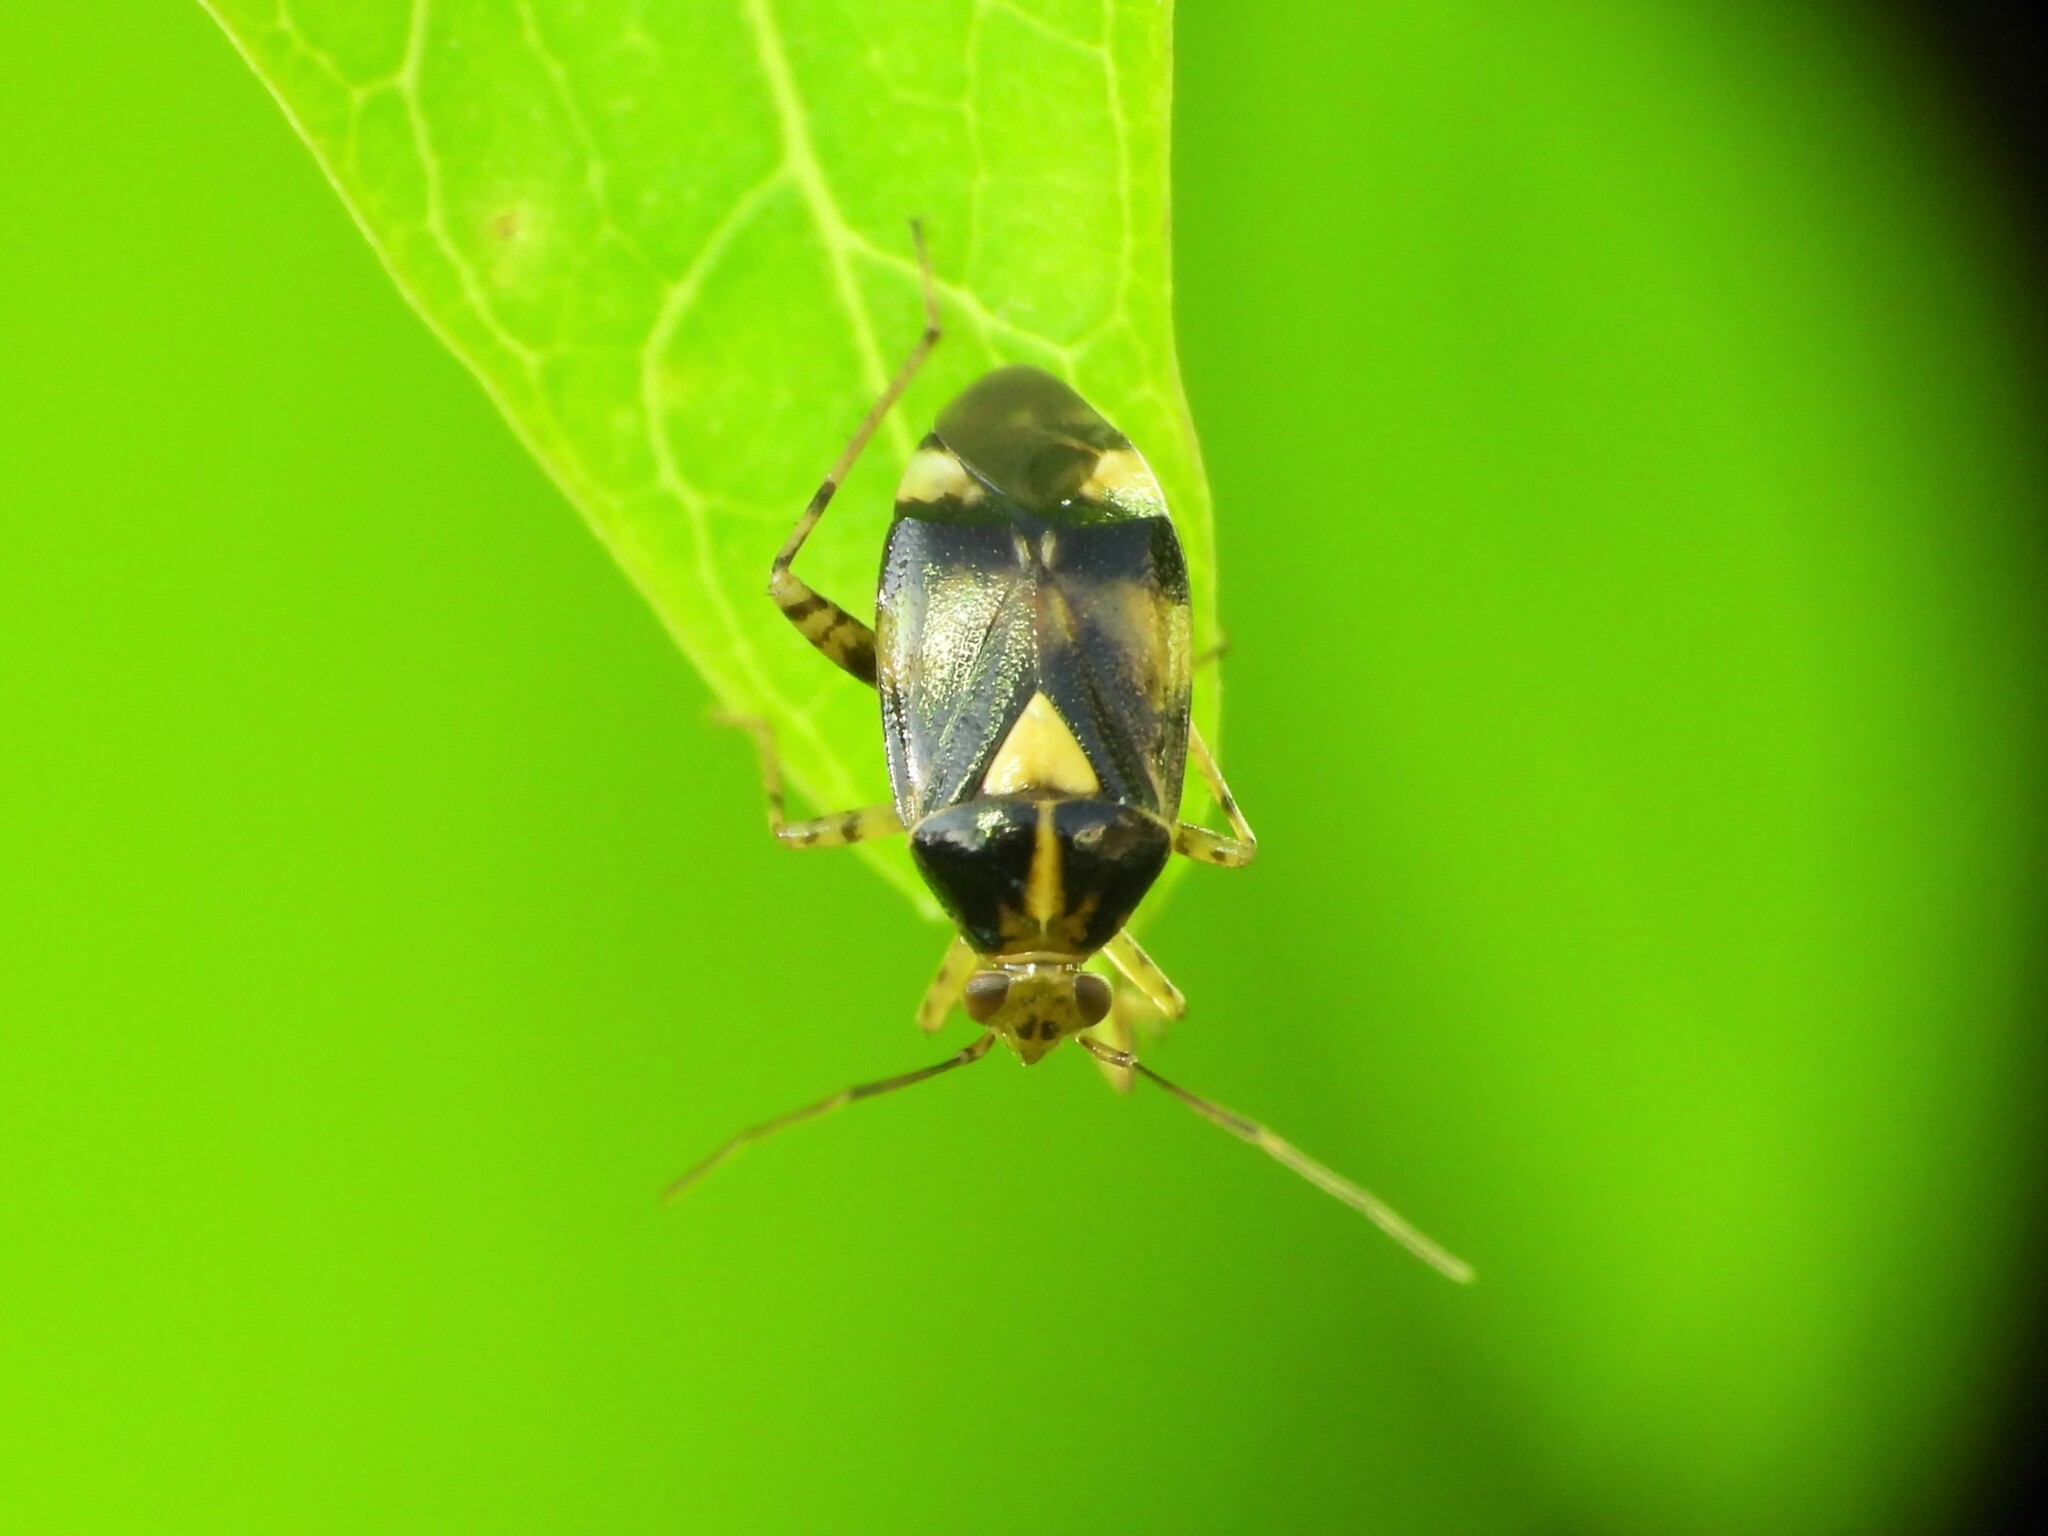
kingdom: Animalia
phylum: Arthropoda
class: Insecta
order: Hemiptera
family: Miridae
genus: Liocoris
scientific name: Liocoris tripustulatus
